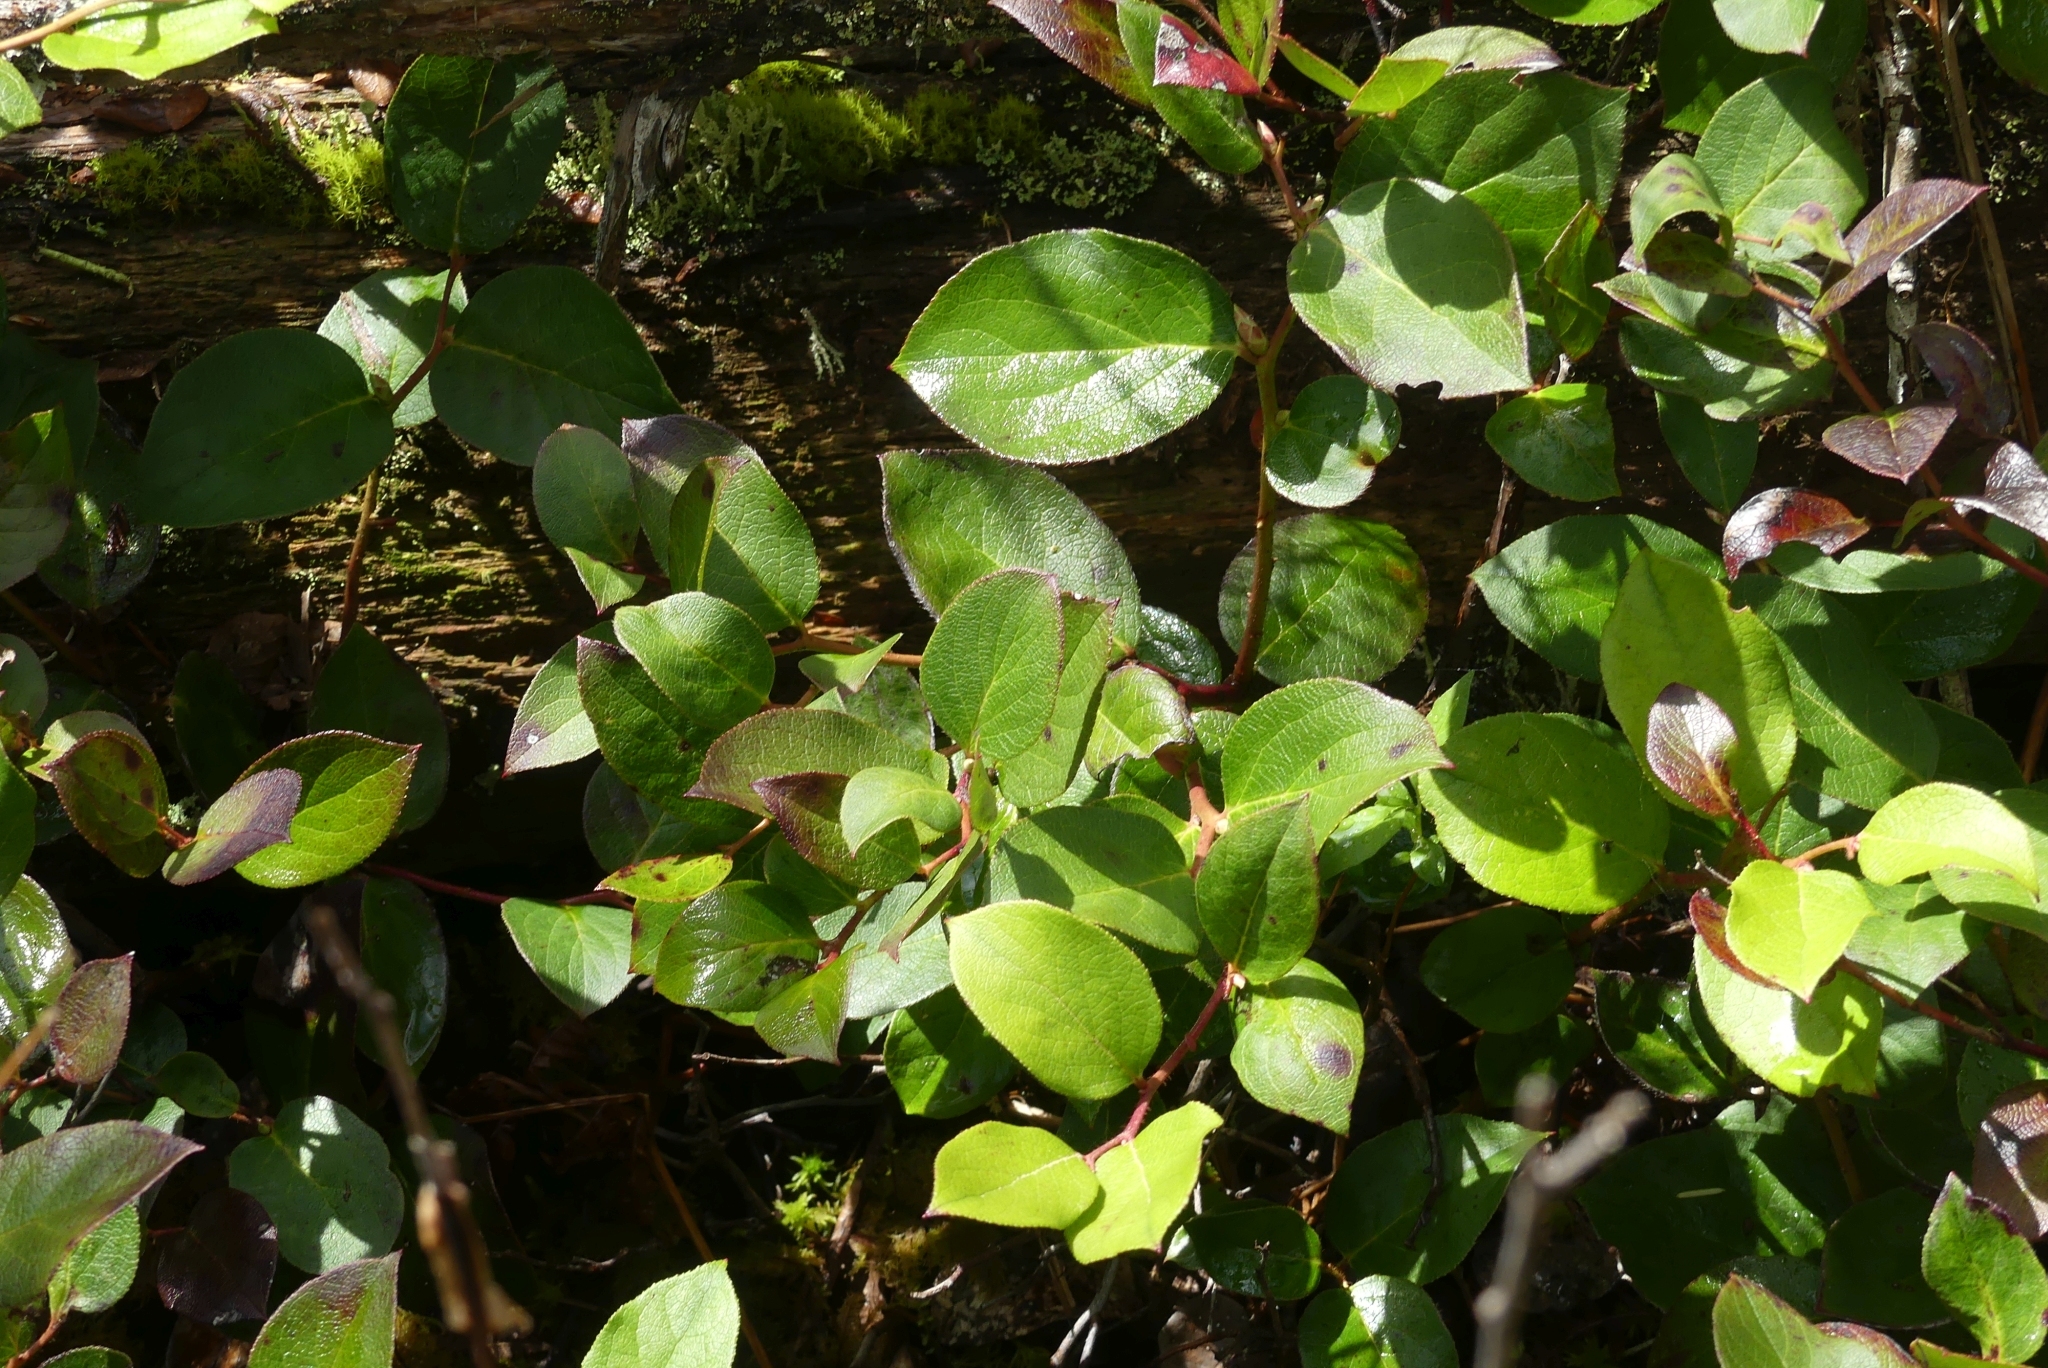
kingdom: Plantae
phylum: Tracheophyta
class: Magnoliopsida
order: Ericales
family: Ericaceae
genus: Gaultheria
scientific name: Gaultheria shallon
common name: Shallon
